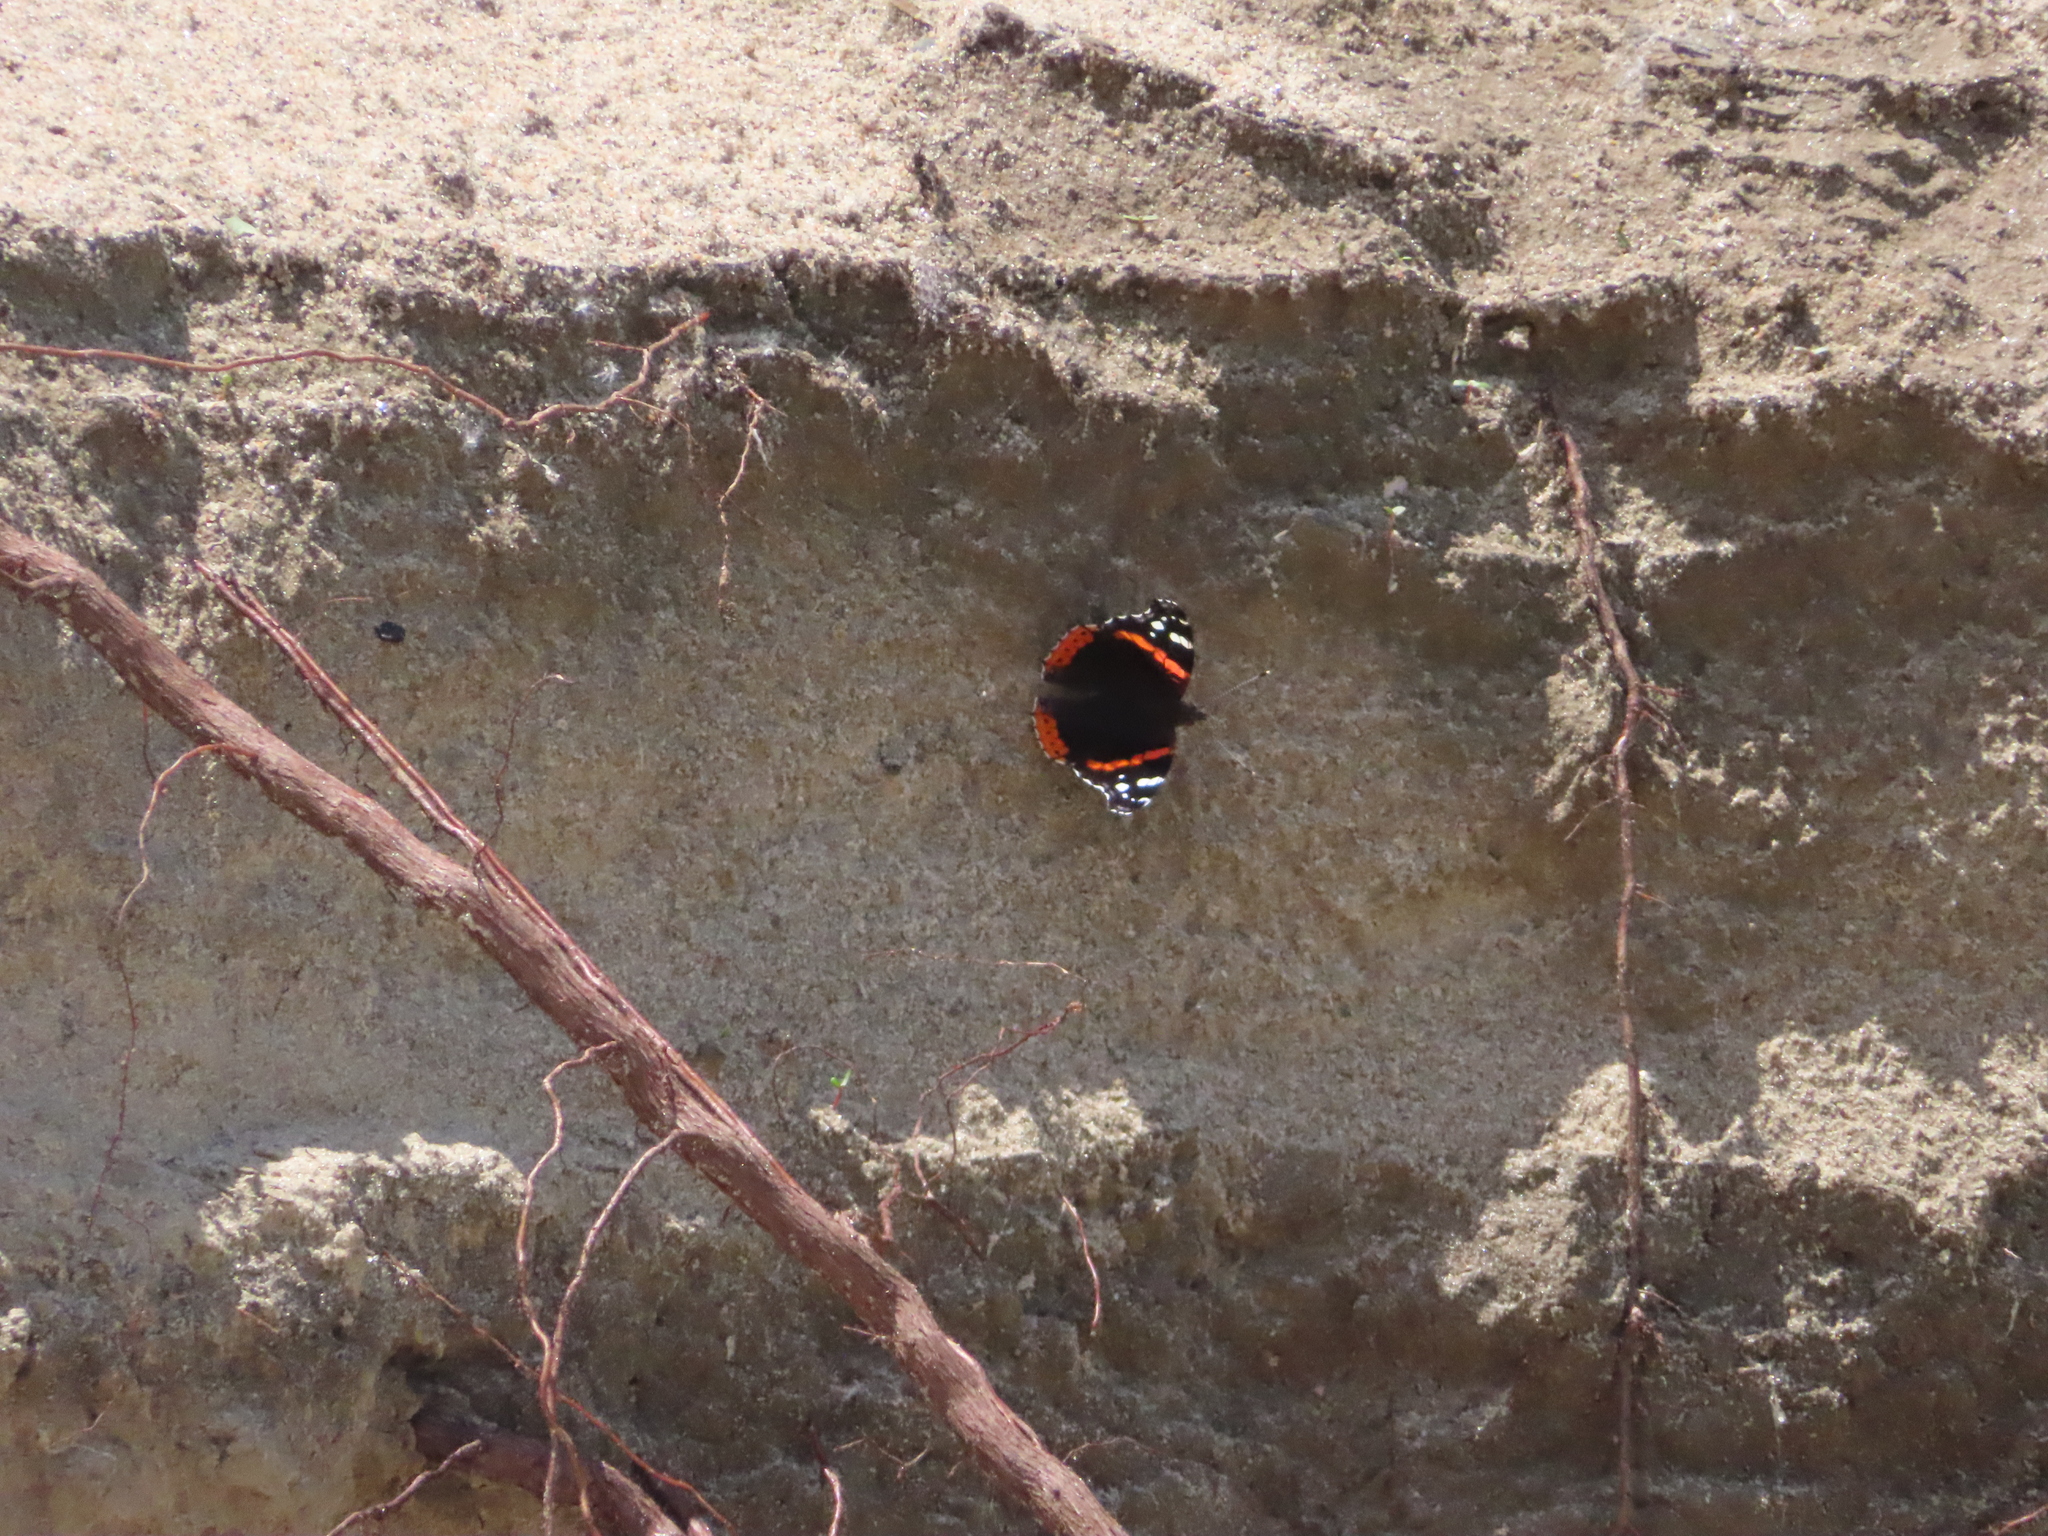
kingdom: Animalia
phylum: Arthropoda
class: Insecta
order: Lepidoptera
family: Nymphalidae
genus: Vanessa
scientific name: Vanessa atalanta
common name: Red admiral
